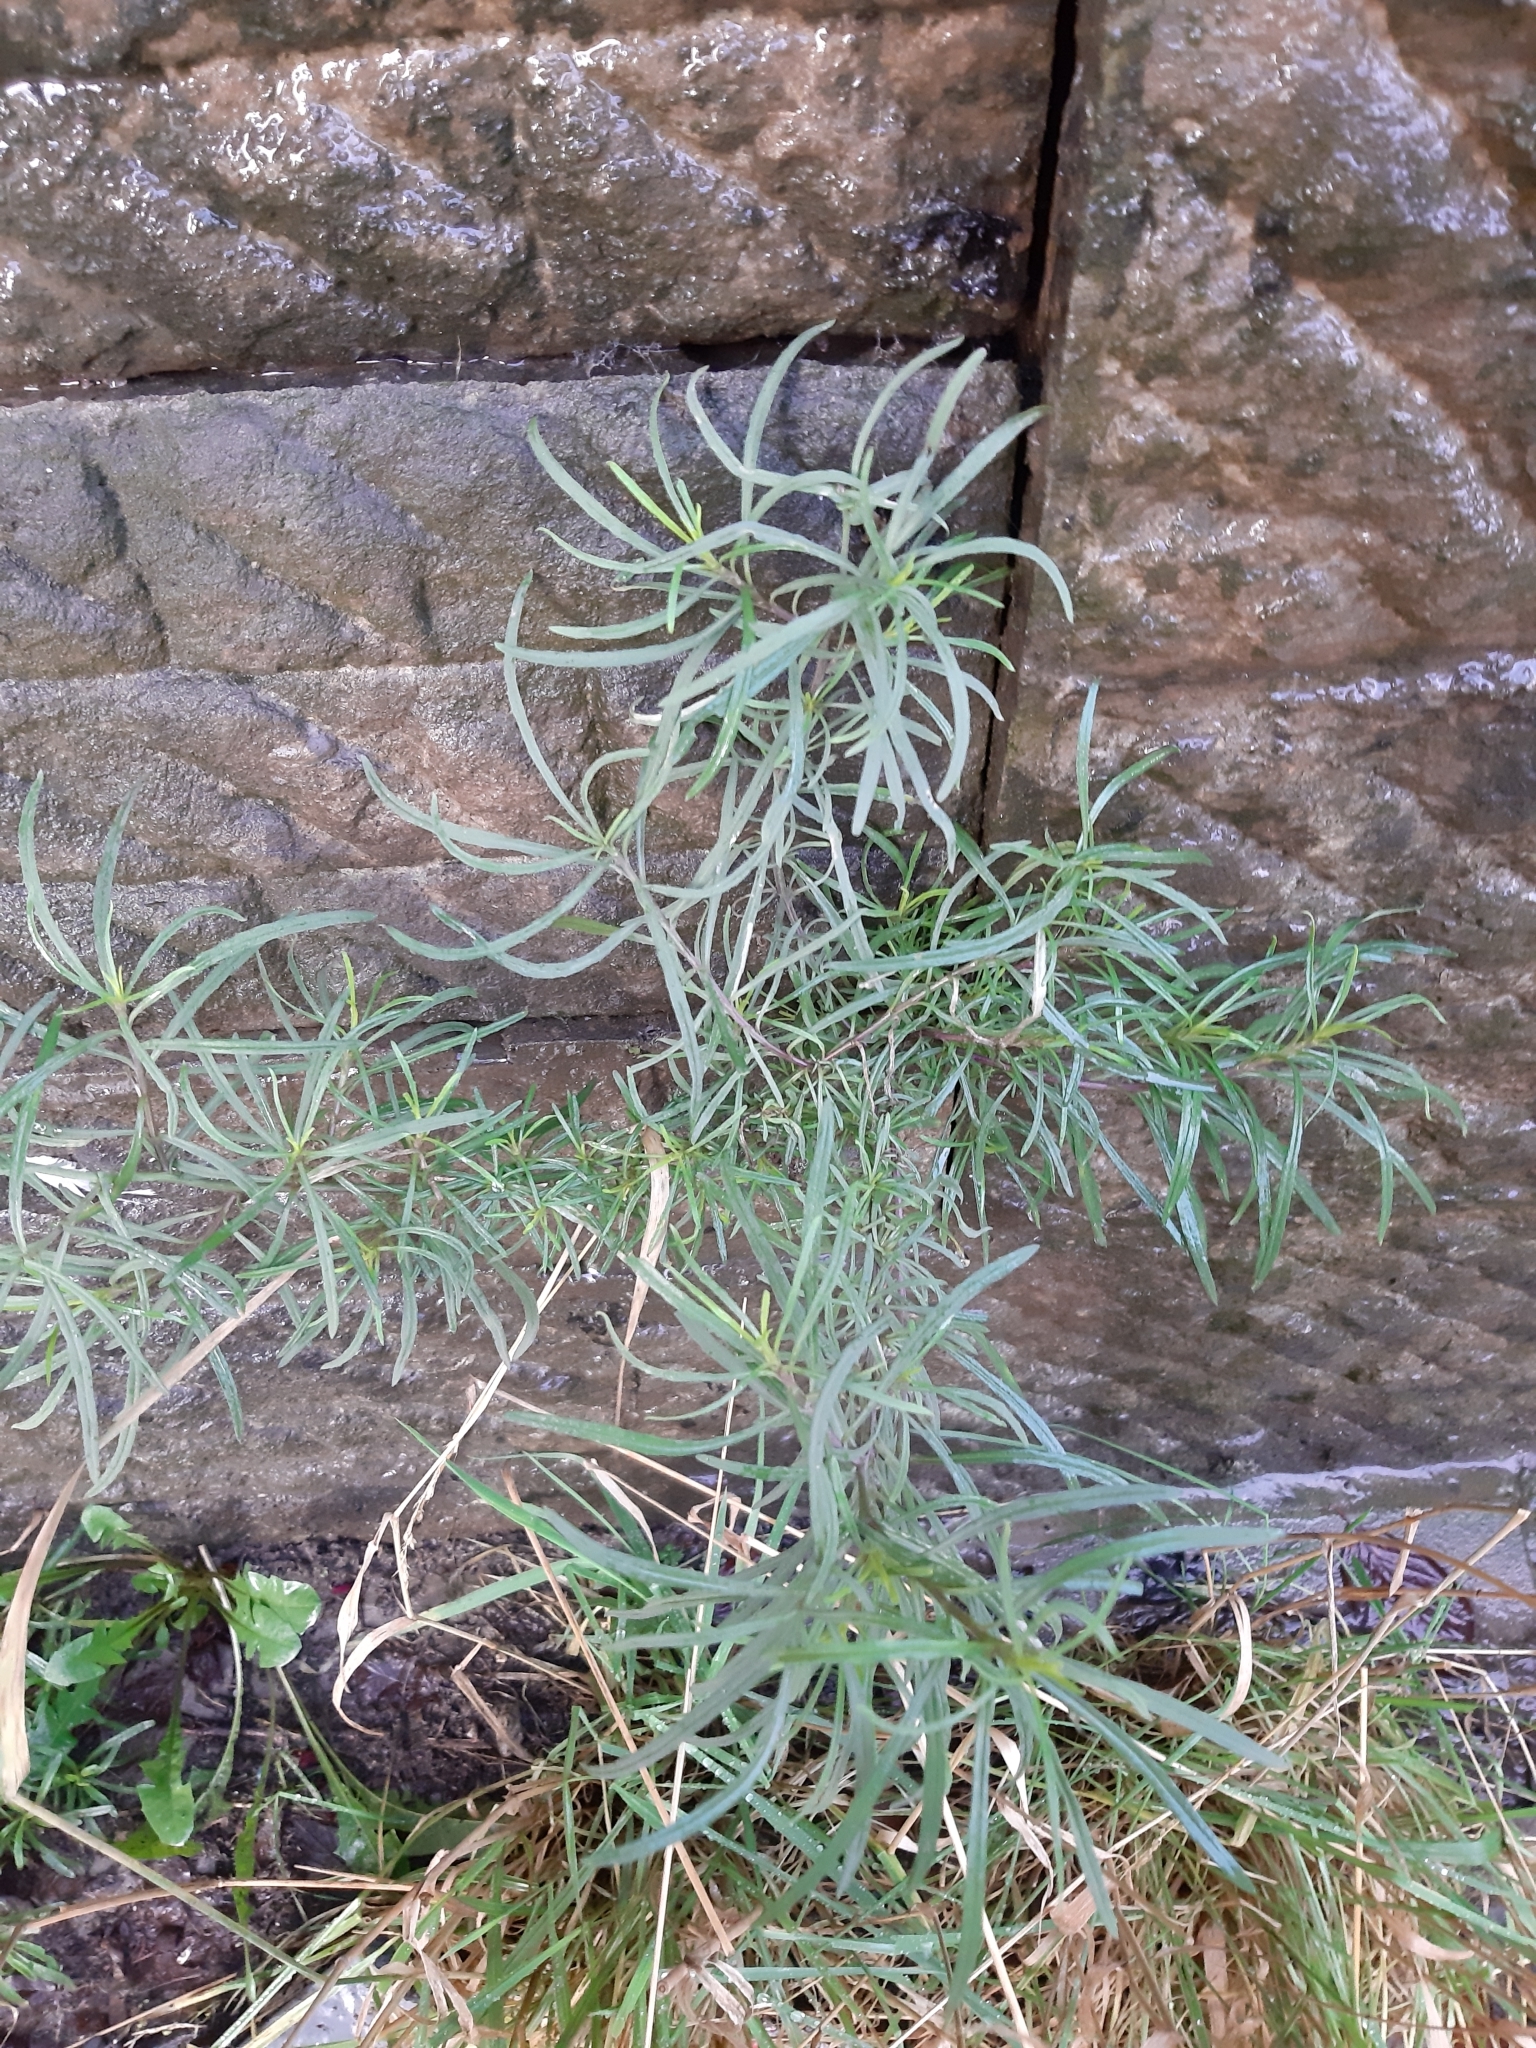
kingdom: Plantae
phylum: Tracheophyta
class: Magnoliopsida
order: Asterales
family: Asteraceae
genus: Senecio
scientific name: Senecio inaequidens
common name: Narrow-leaved ragwort
